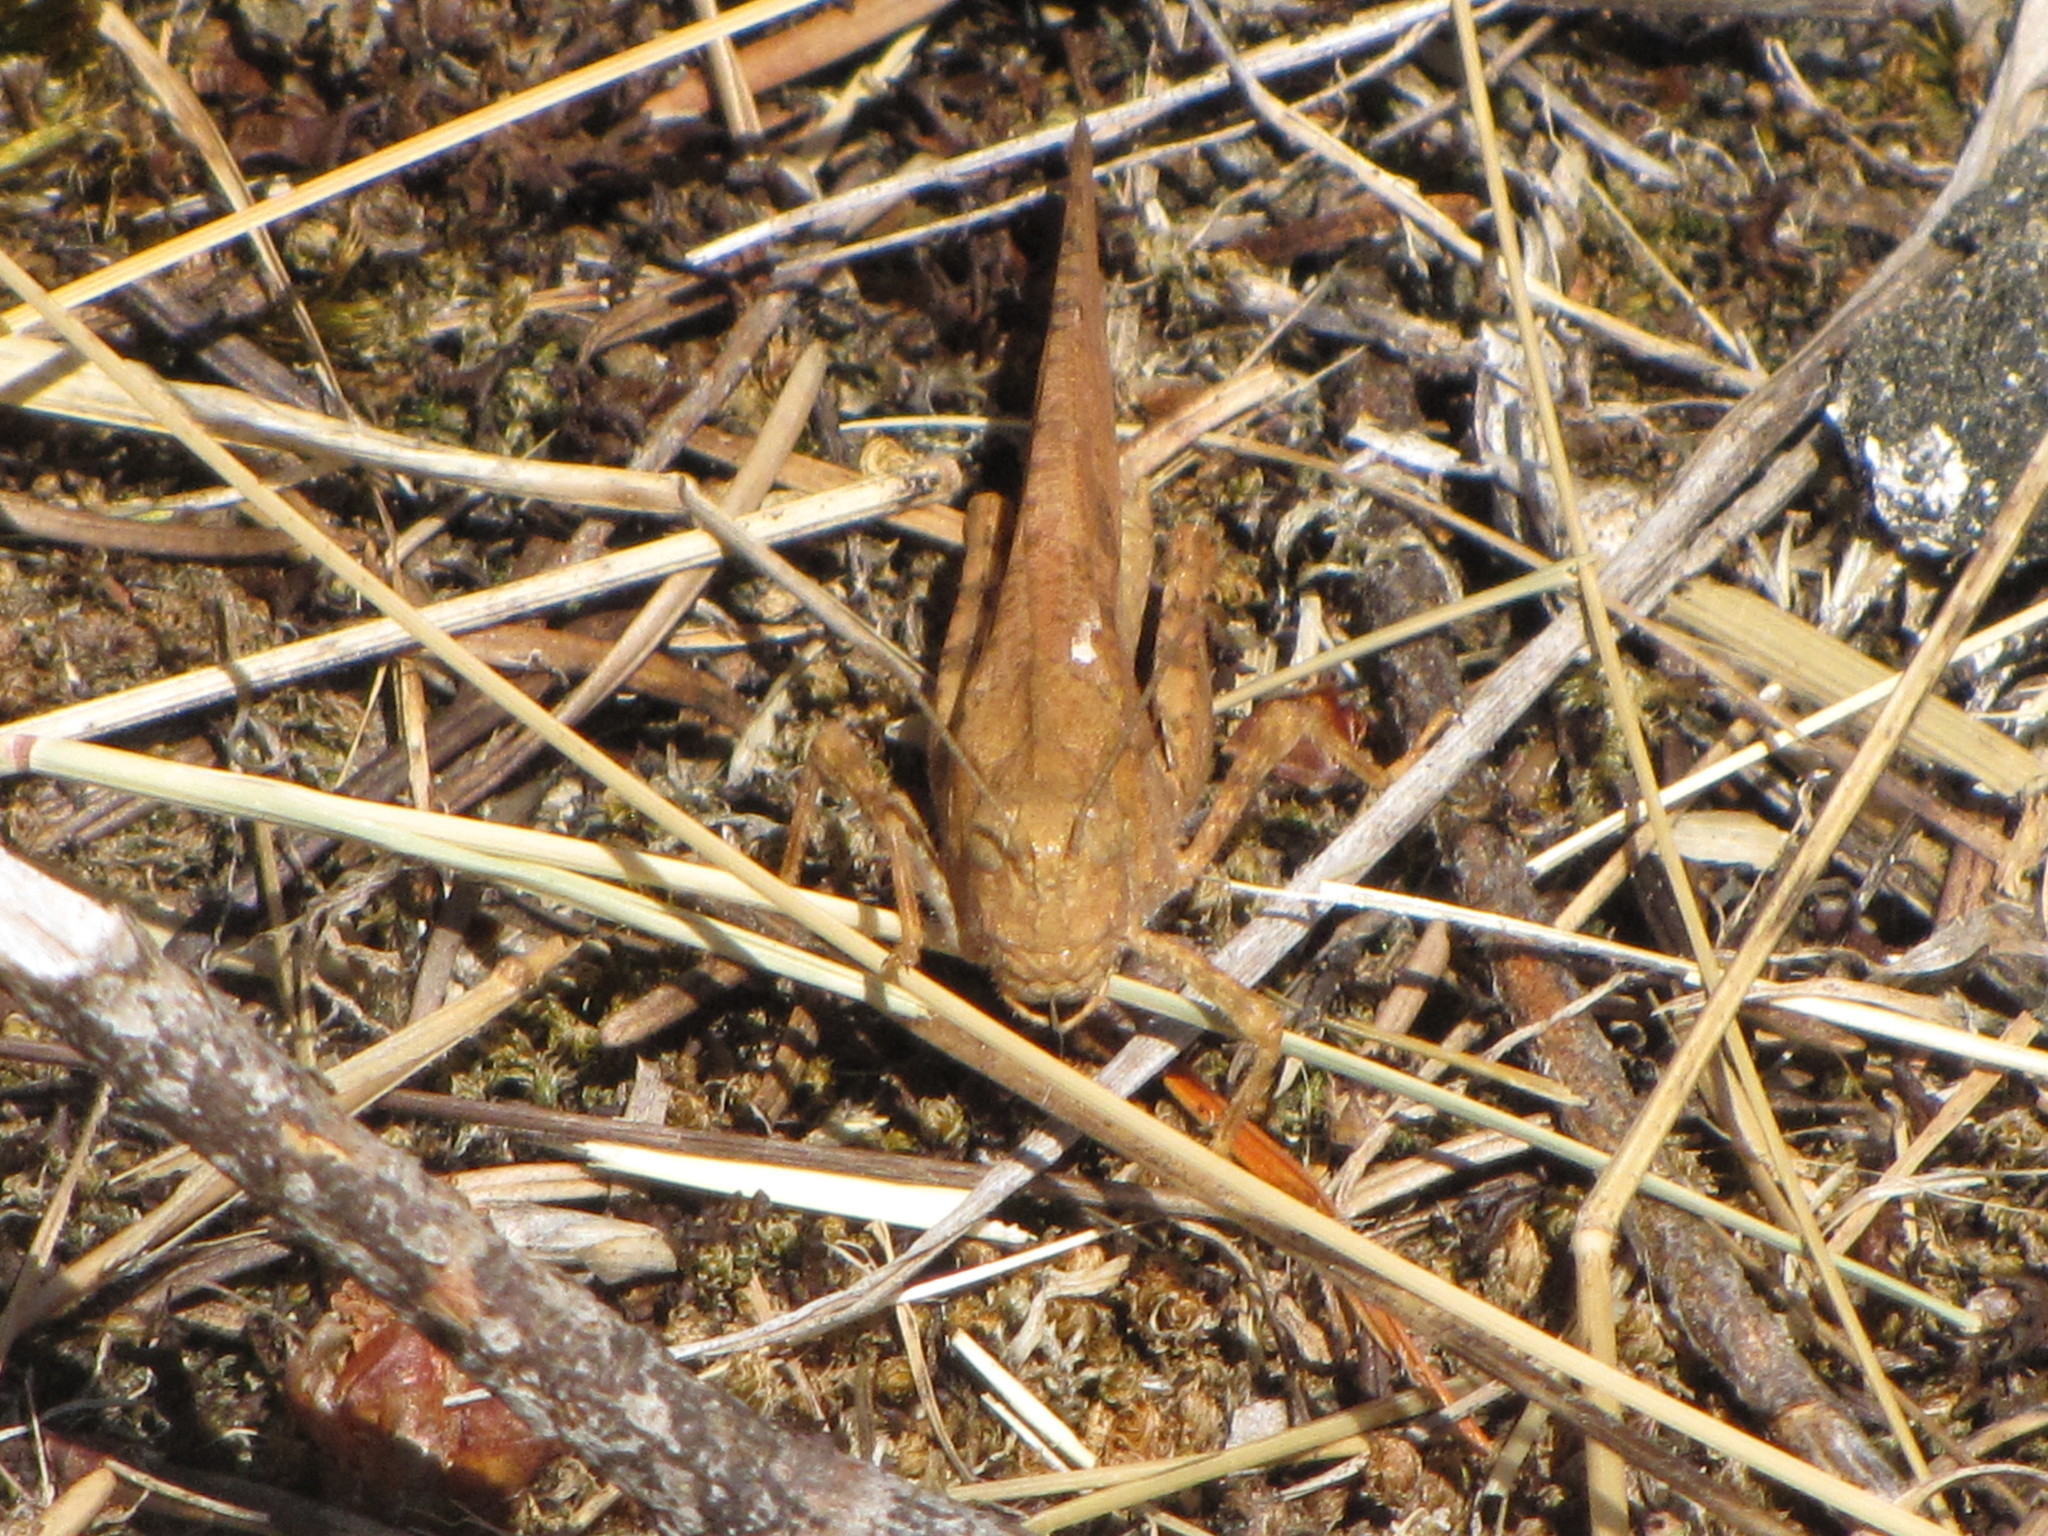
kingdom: Animalia
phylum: Arthropoda
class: Insecta
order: Orthoptera
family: Acrididae
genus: Dissosteira
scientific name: Dissosteira carolina
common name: Carolina grasshopper
